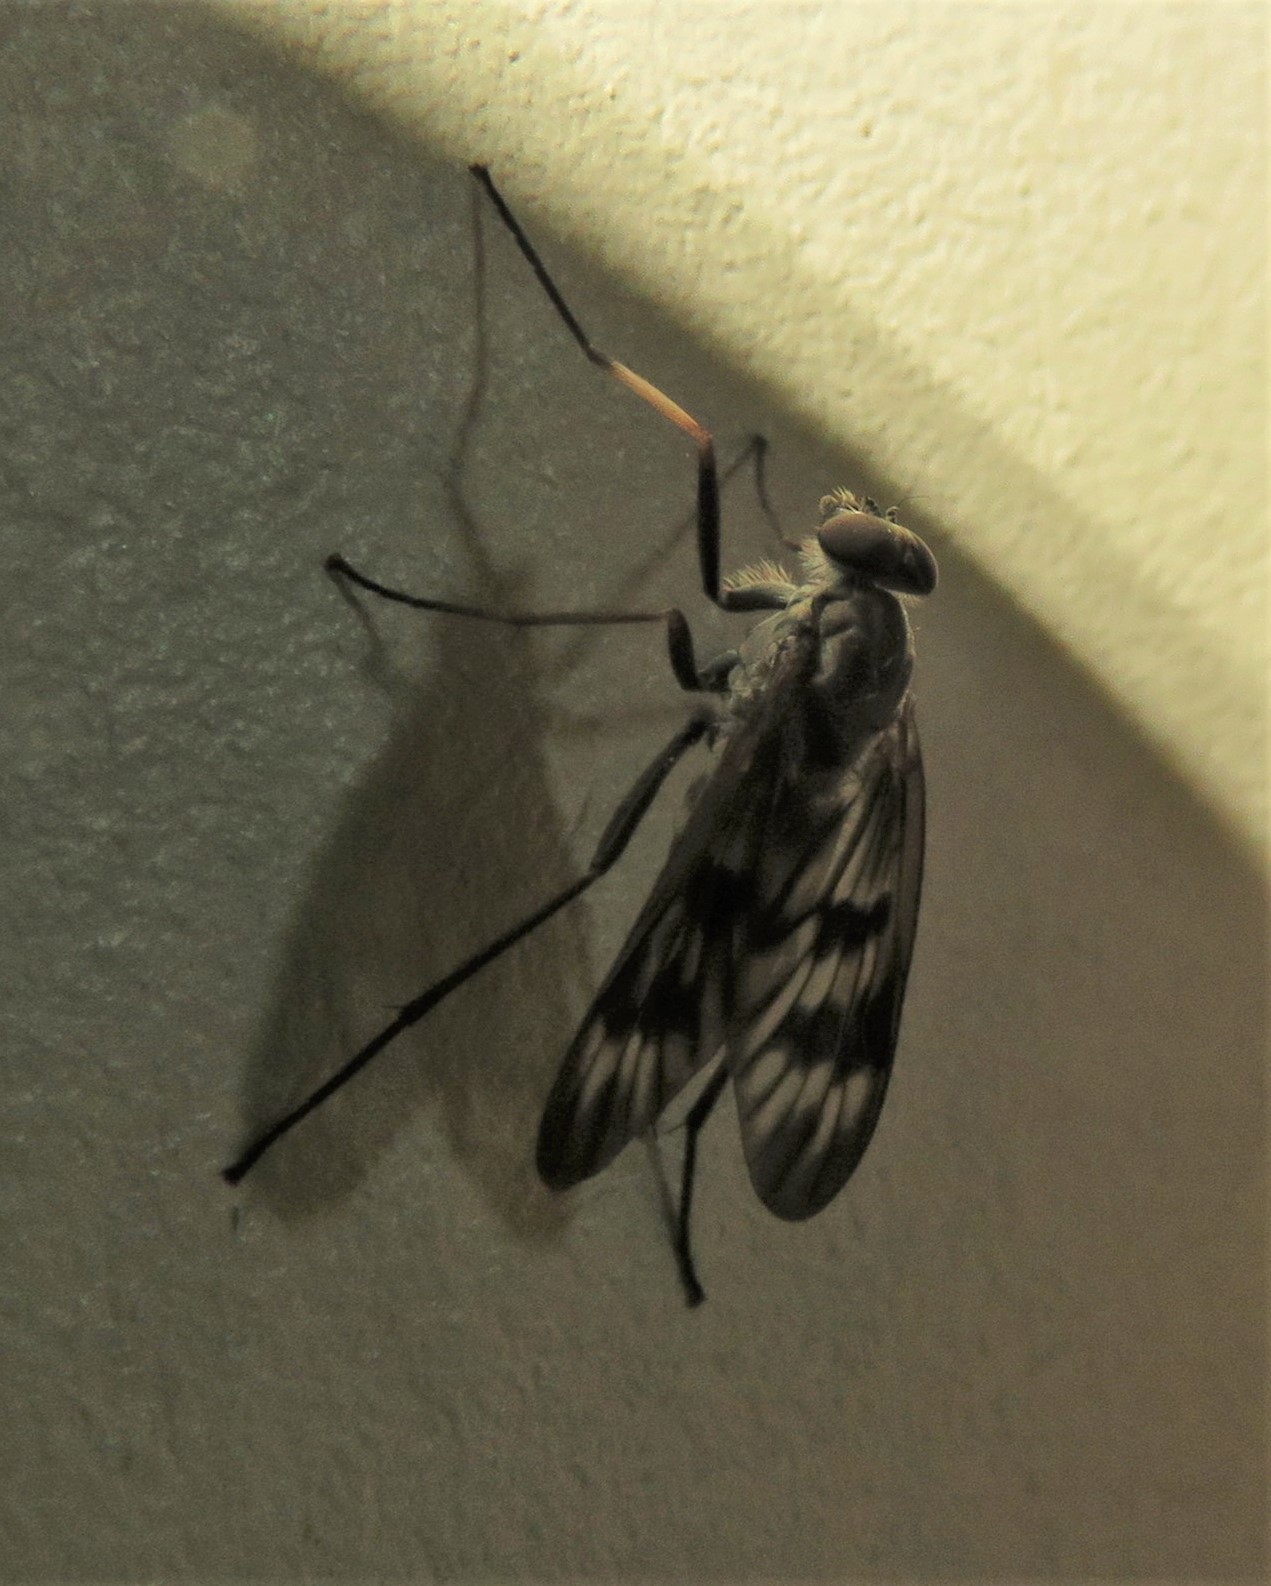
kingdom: Animalia
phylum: Arthropoda
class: Insecta
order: Diptera
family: Rhagionidae
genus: Rhagio
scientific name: Rhagio mystaceus
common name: Common snipe fly
